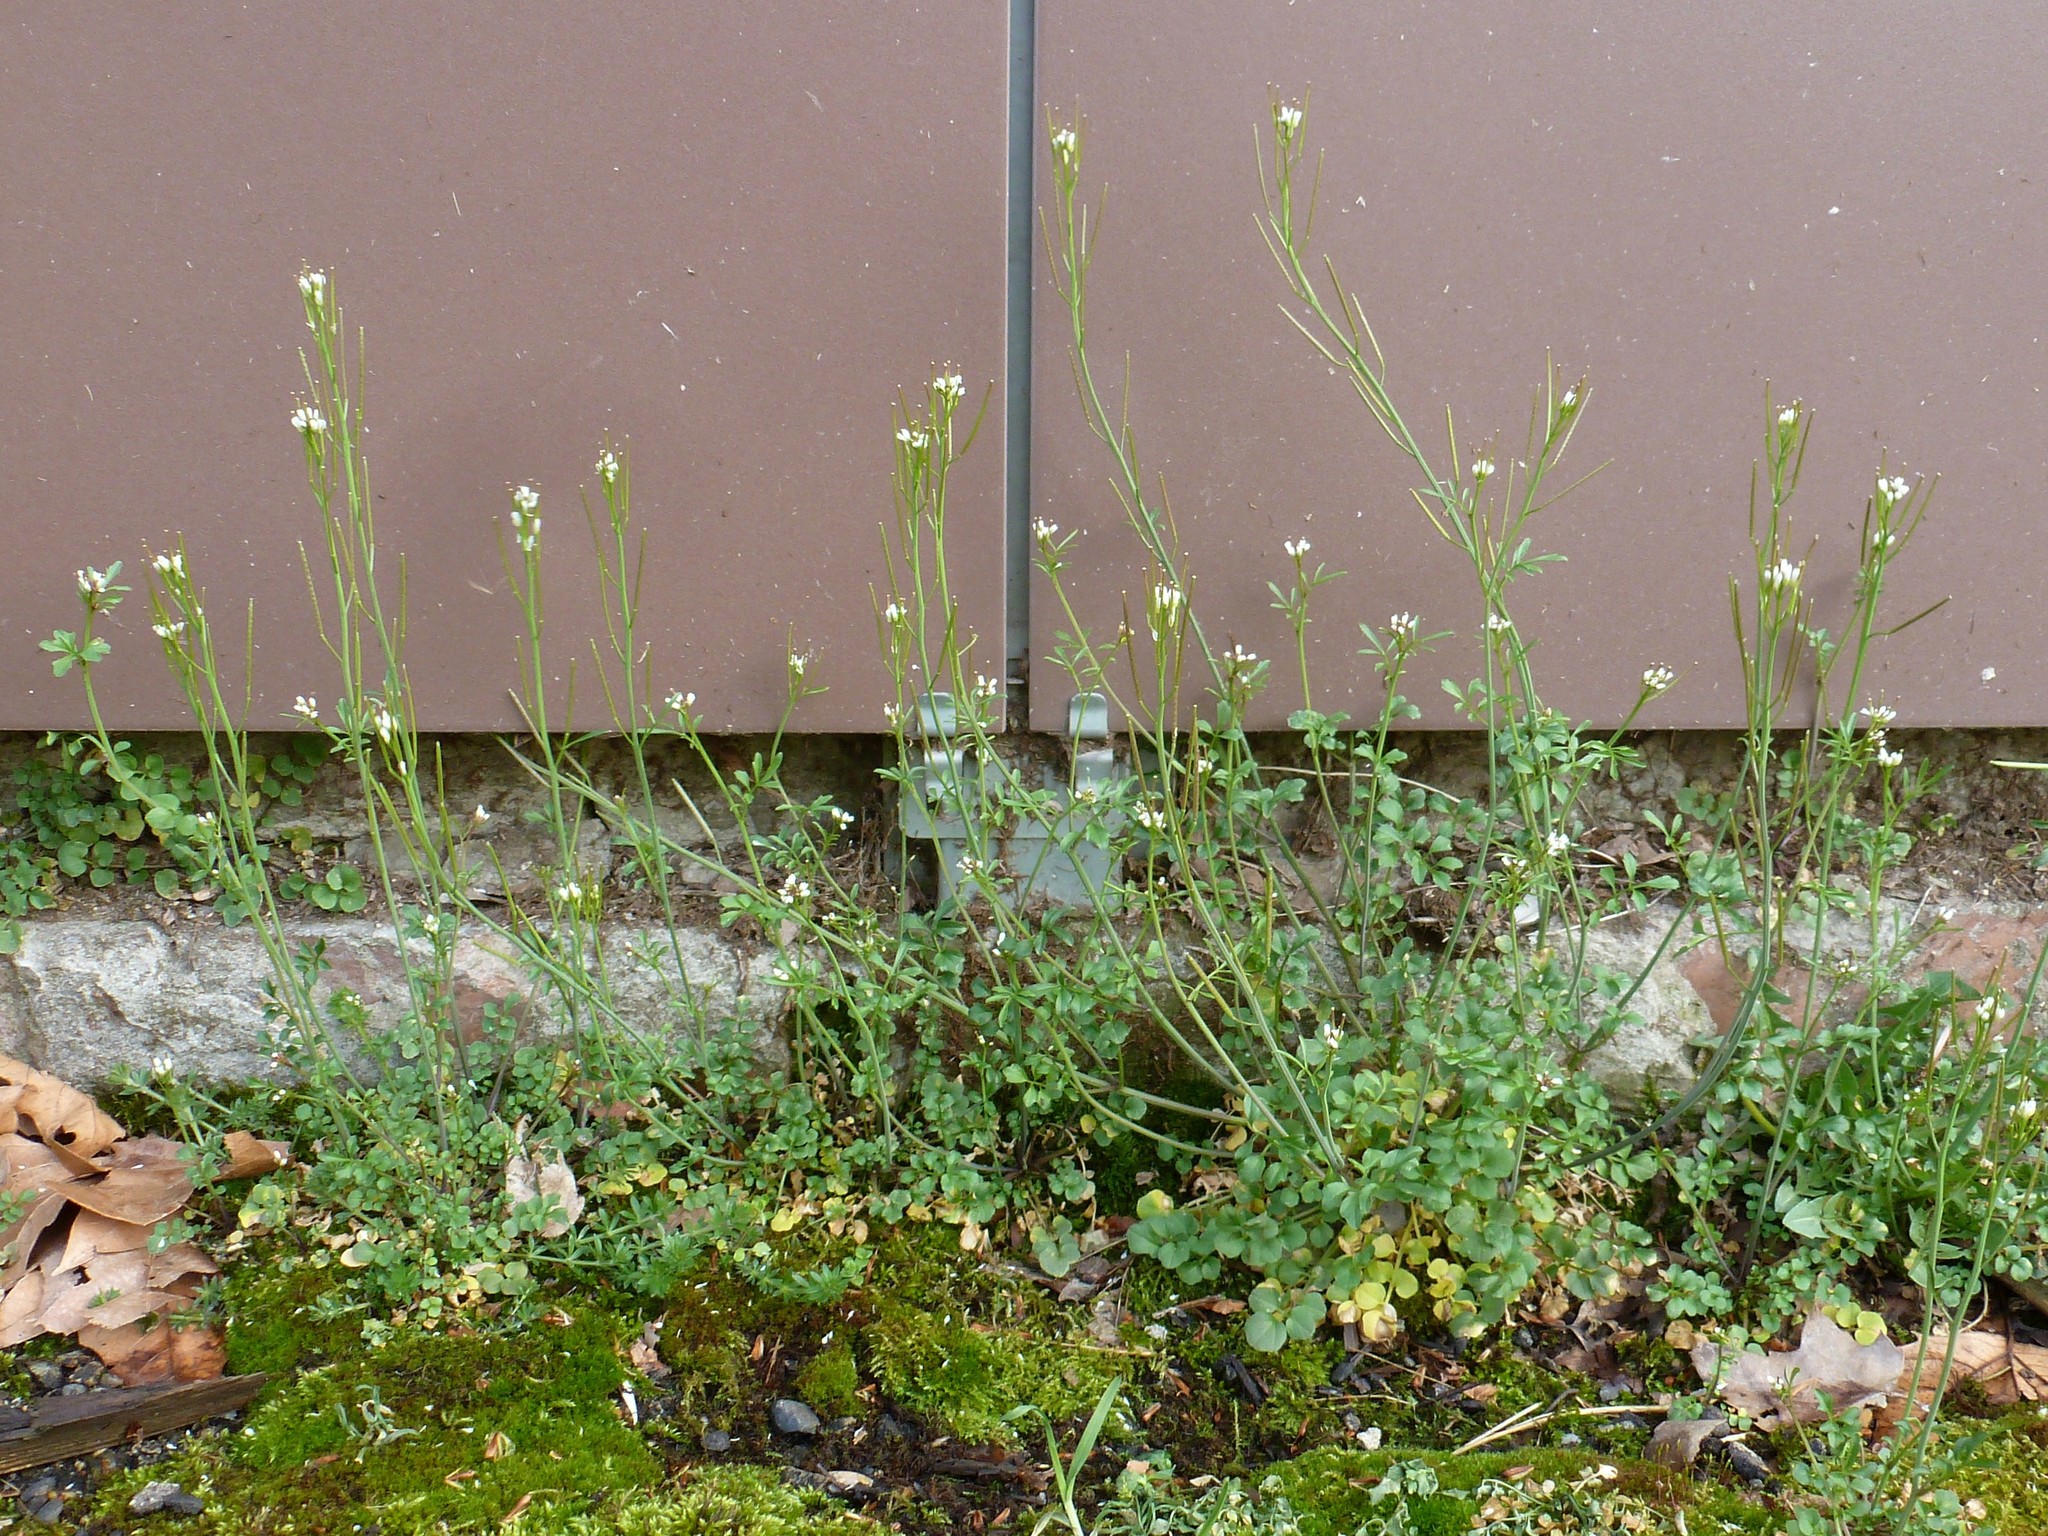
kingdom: Plantae
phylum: Tracheophyta
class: Magnoliopsida
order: Brassicales
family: Brassicaceae
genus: Cardamine
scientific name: Cardamine hirsuta
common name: Hairy bittercress
